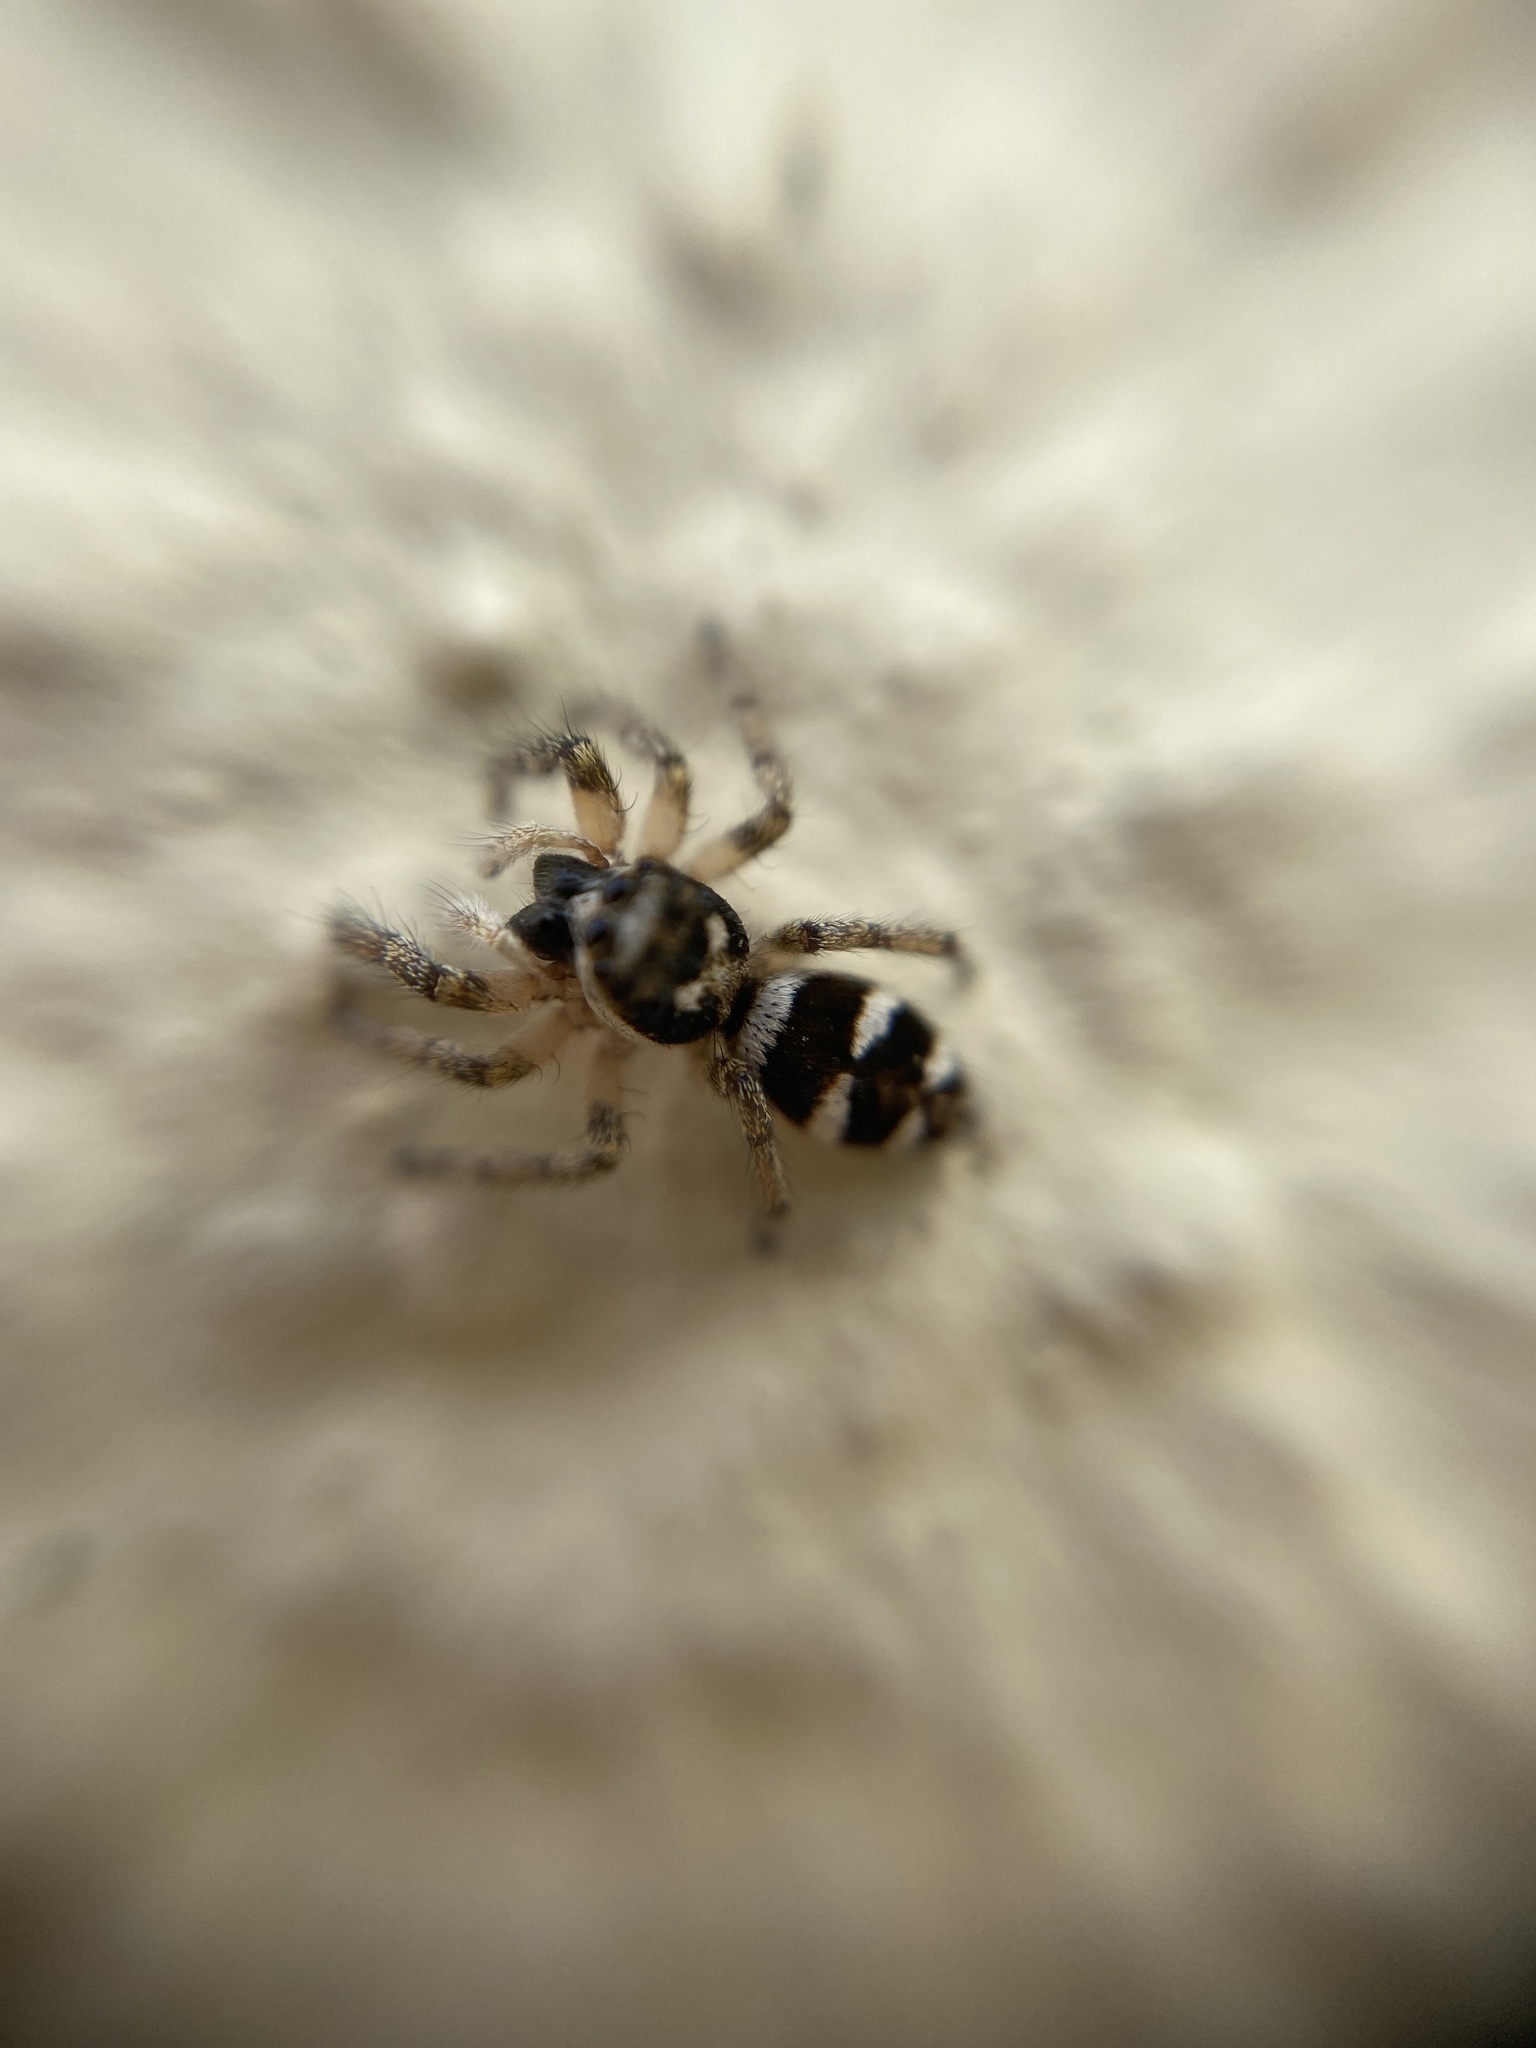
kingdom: Animalia
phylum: Arthropoda
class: Arachnida
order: Araneae
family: Salticidae
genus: Salticus
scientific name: Salticus scenicus
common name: Zebra jumper
